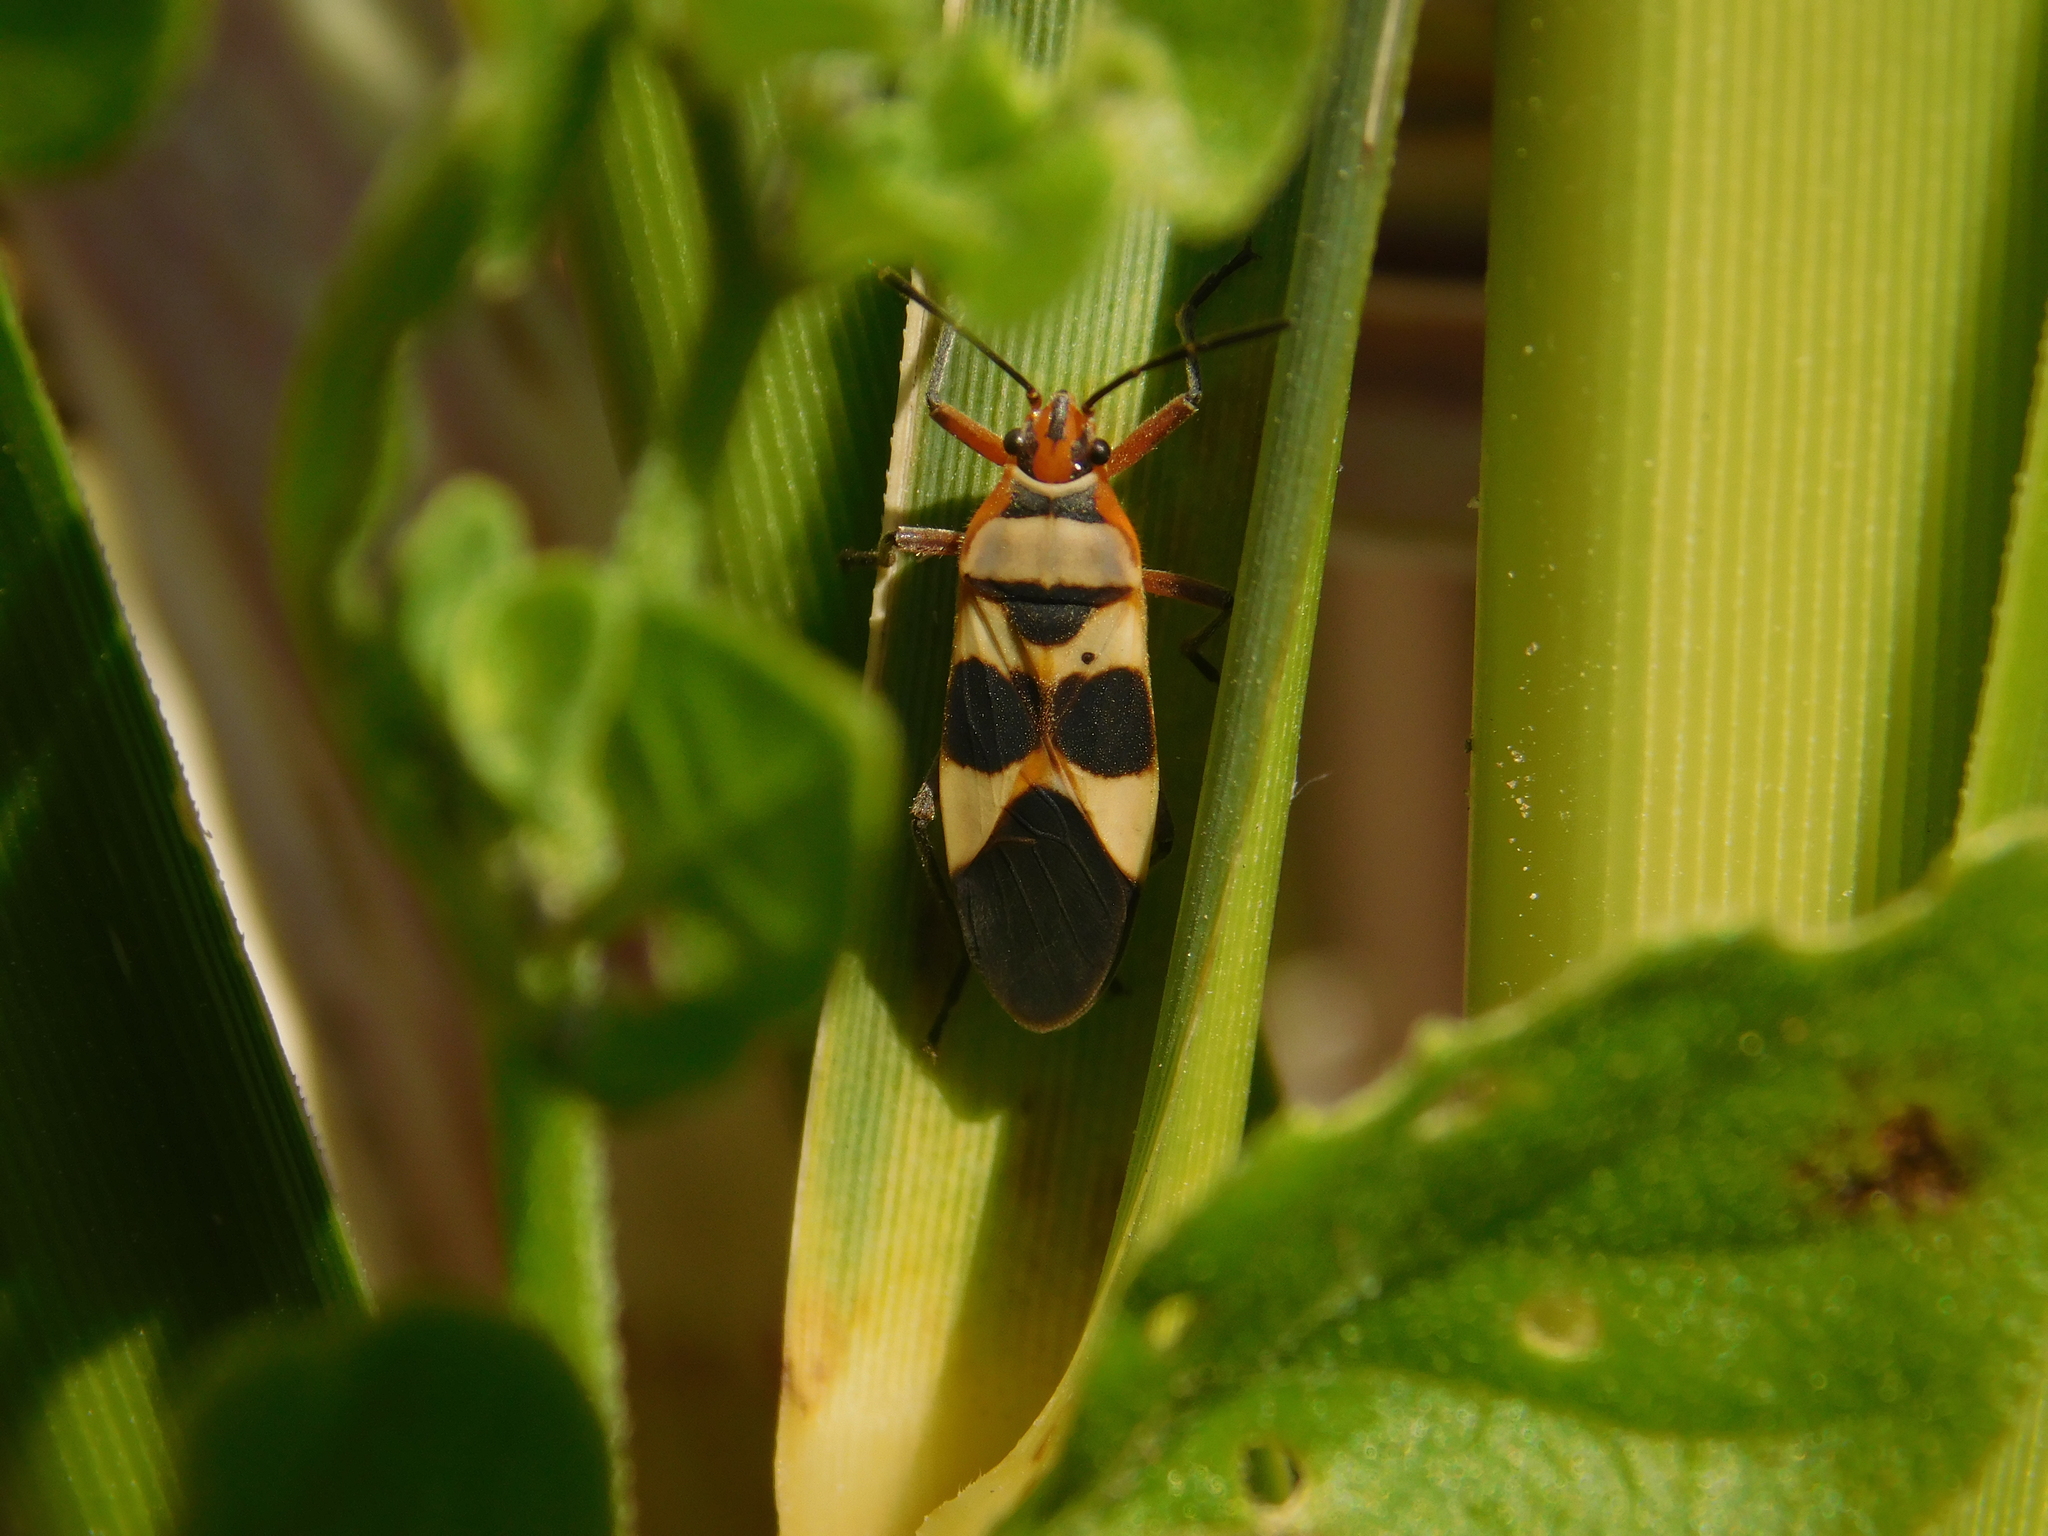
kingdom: Animalia
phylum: Arthropoda
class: Insecta
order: Hemiptera
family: Lygaeidae
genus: Oncopeltus
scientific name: Oncopeltus unifasciatellus
